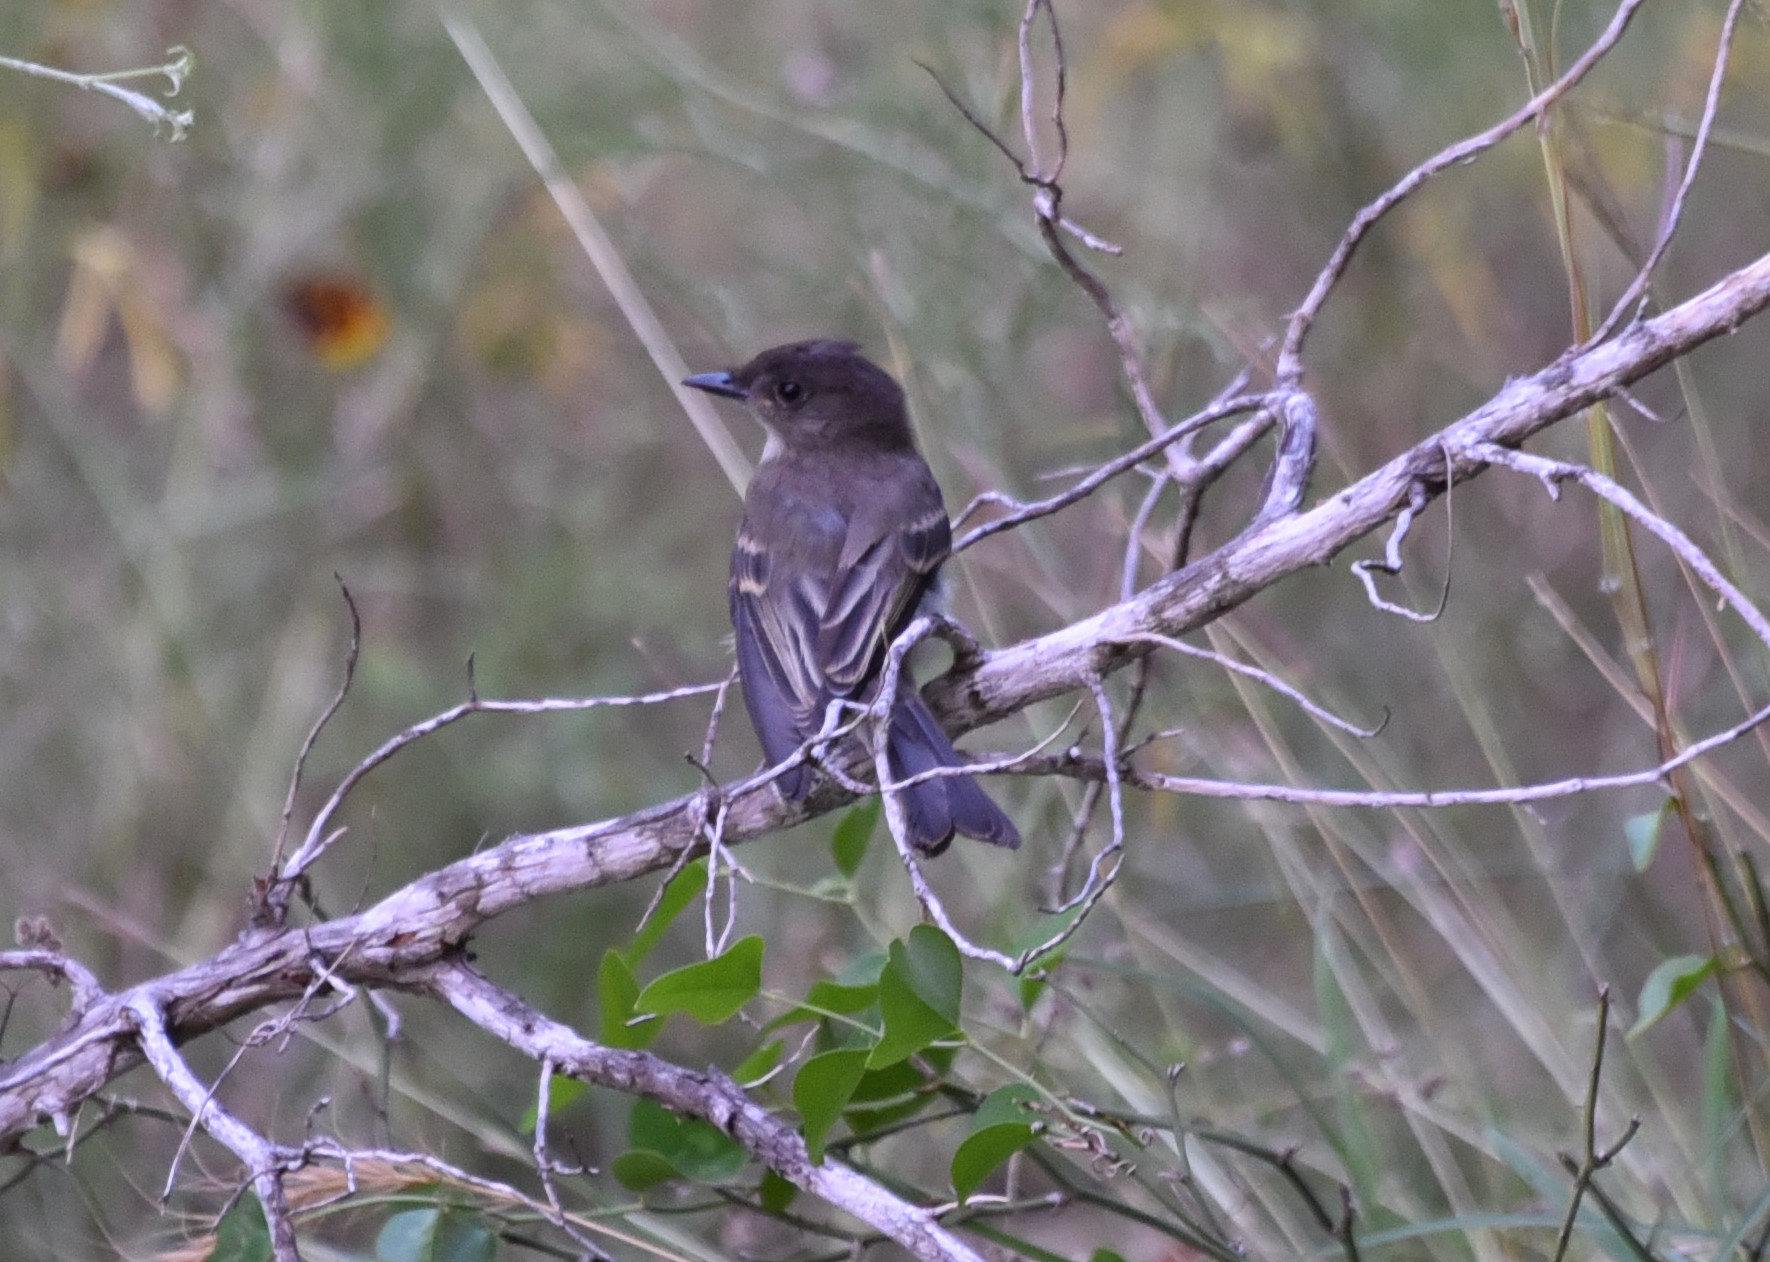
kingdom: Animalia
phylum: Chordata
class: Aves
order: Passeriformes
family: Tyrannidae
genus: Sayornis
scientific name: Sayornis phoebe
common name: Eastern phoebe
